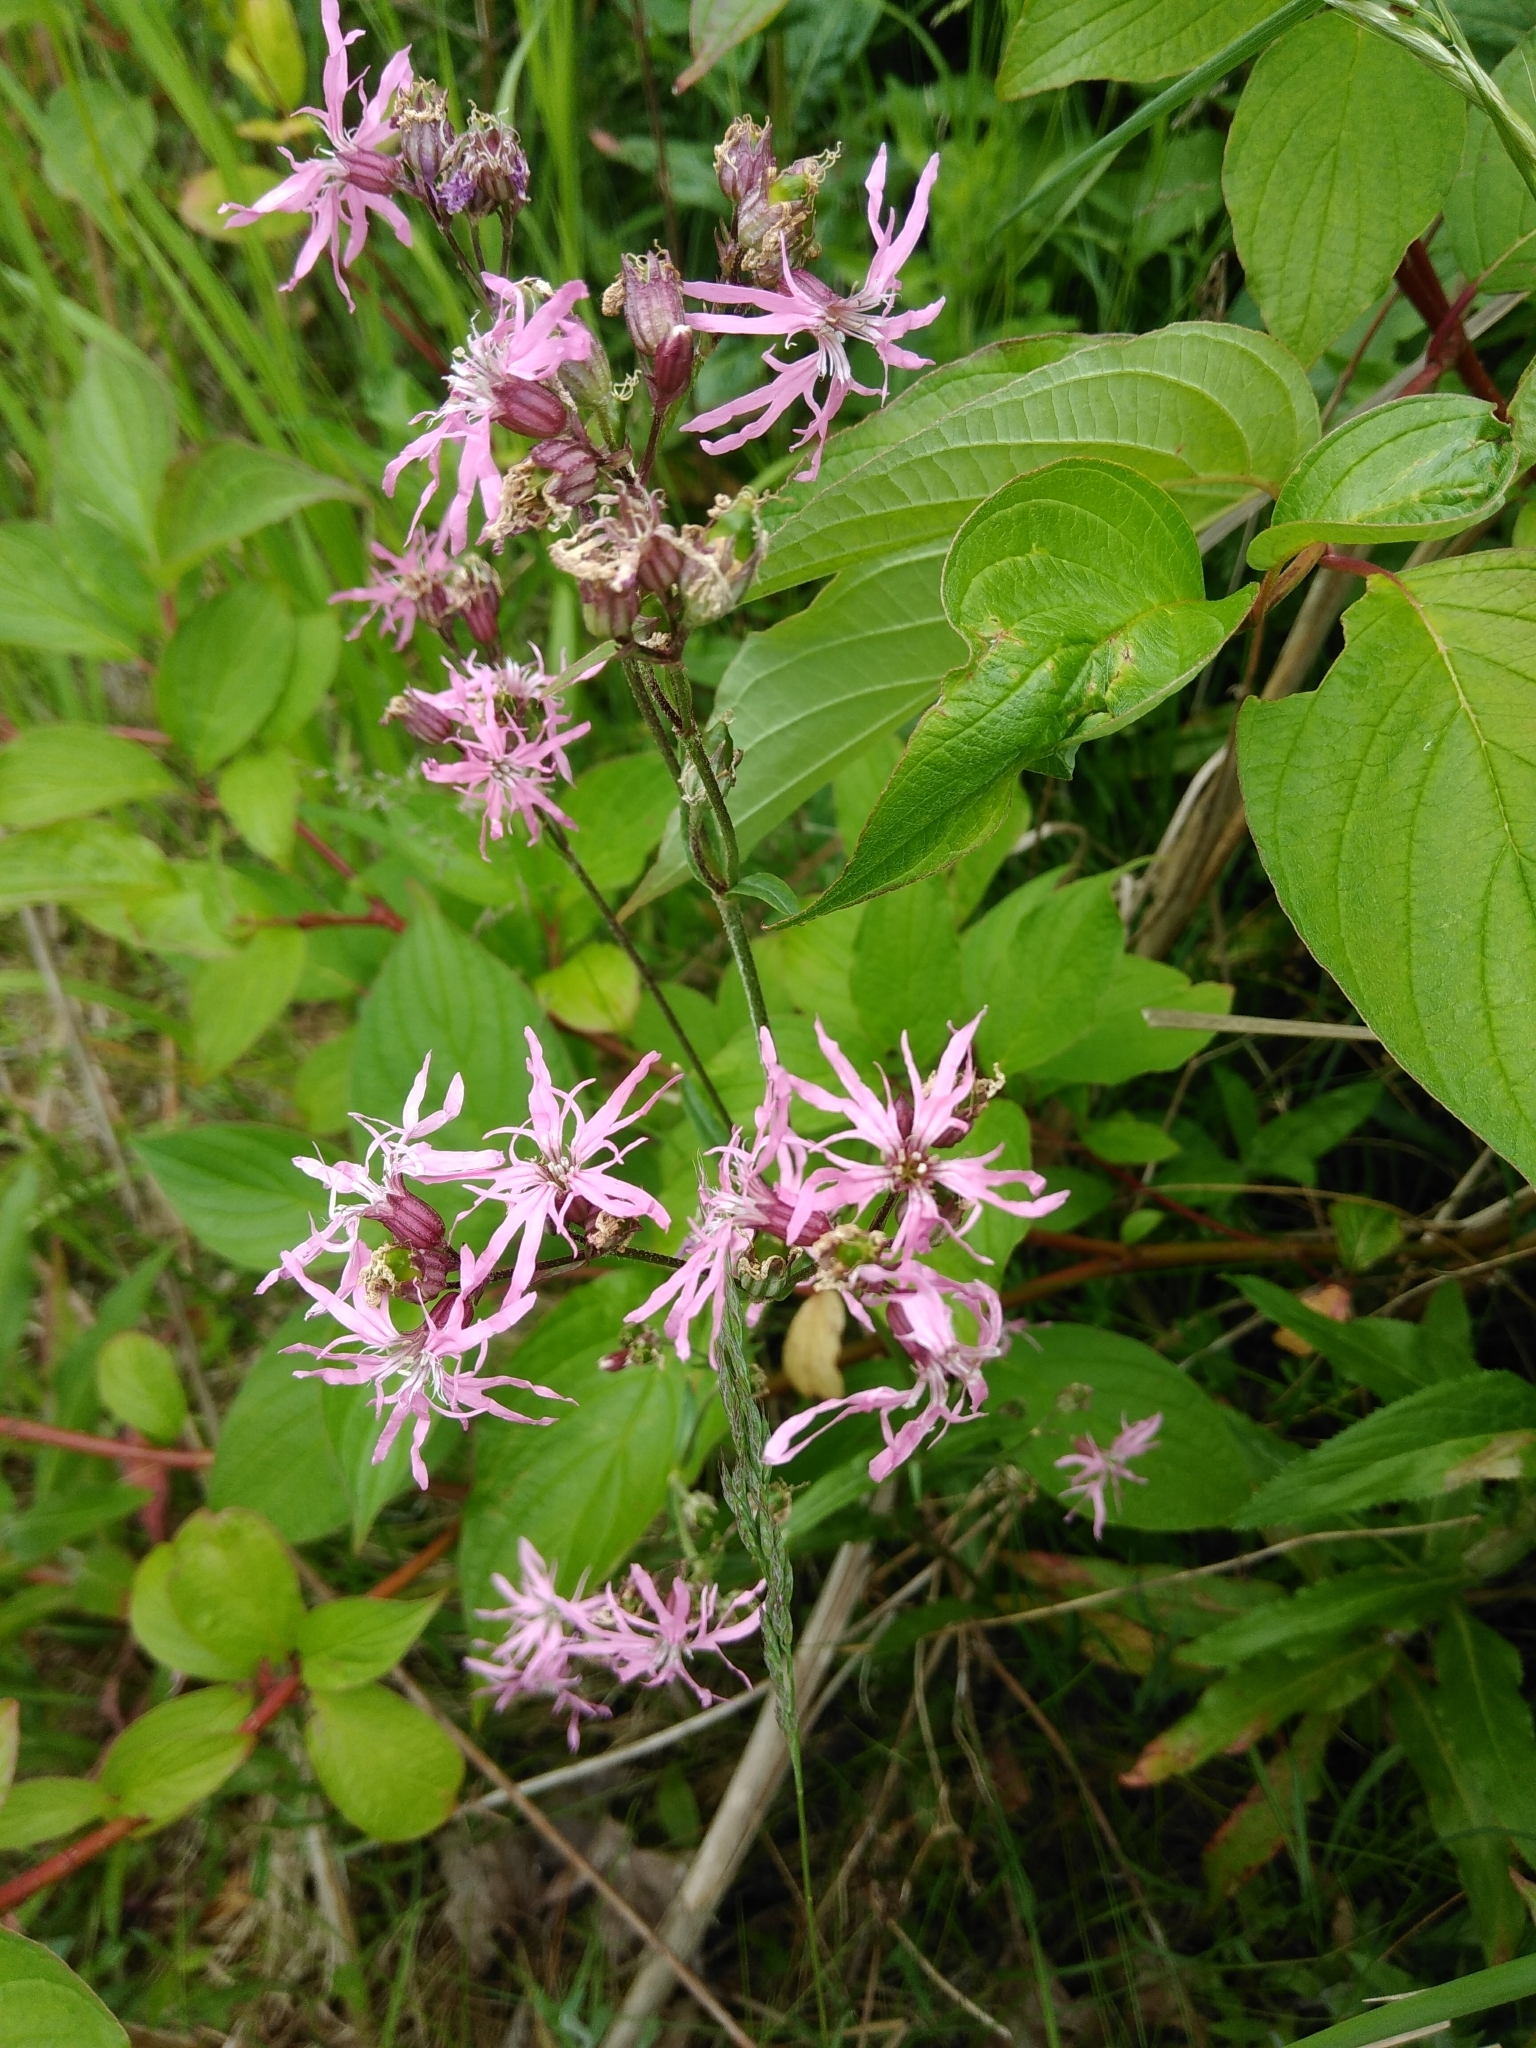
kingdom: Plantae
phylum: Tracheophyta
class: Magnoliopsida
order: Caryophyllales
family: Caryophyllaceae
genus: Silene
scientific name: Silene flos-cuculi
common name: Ragged-robin
